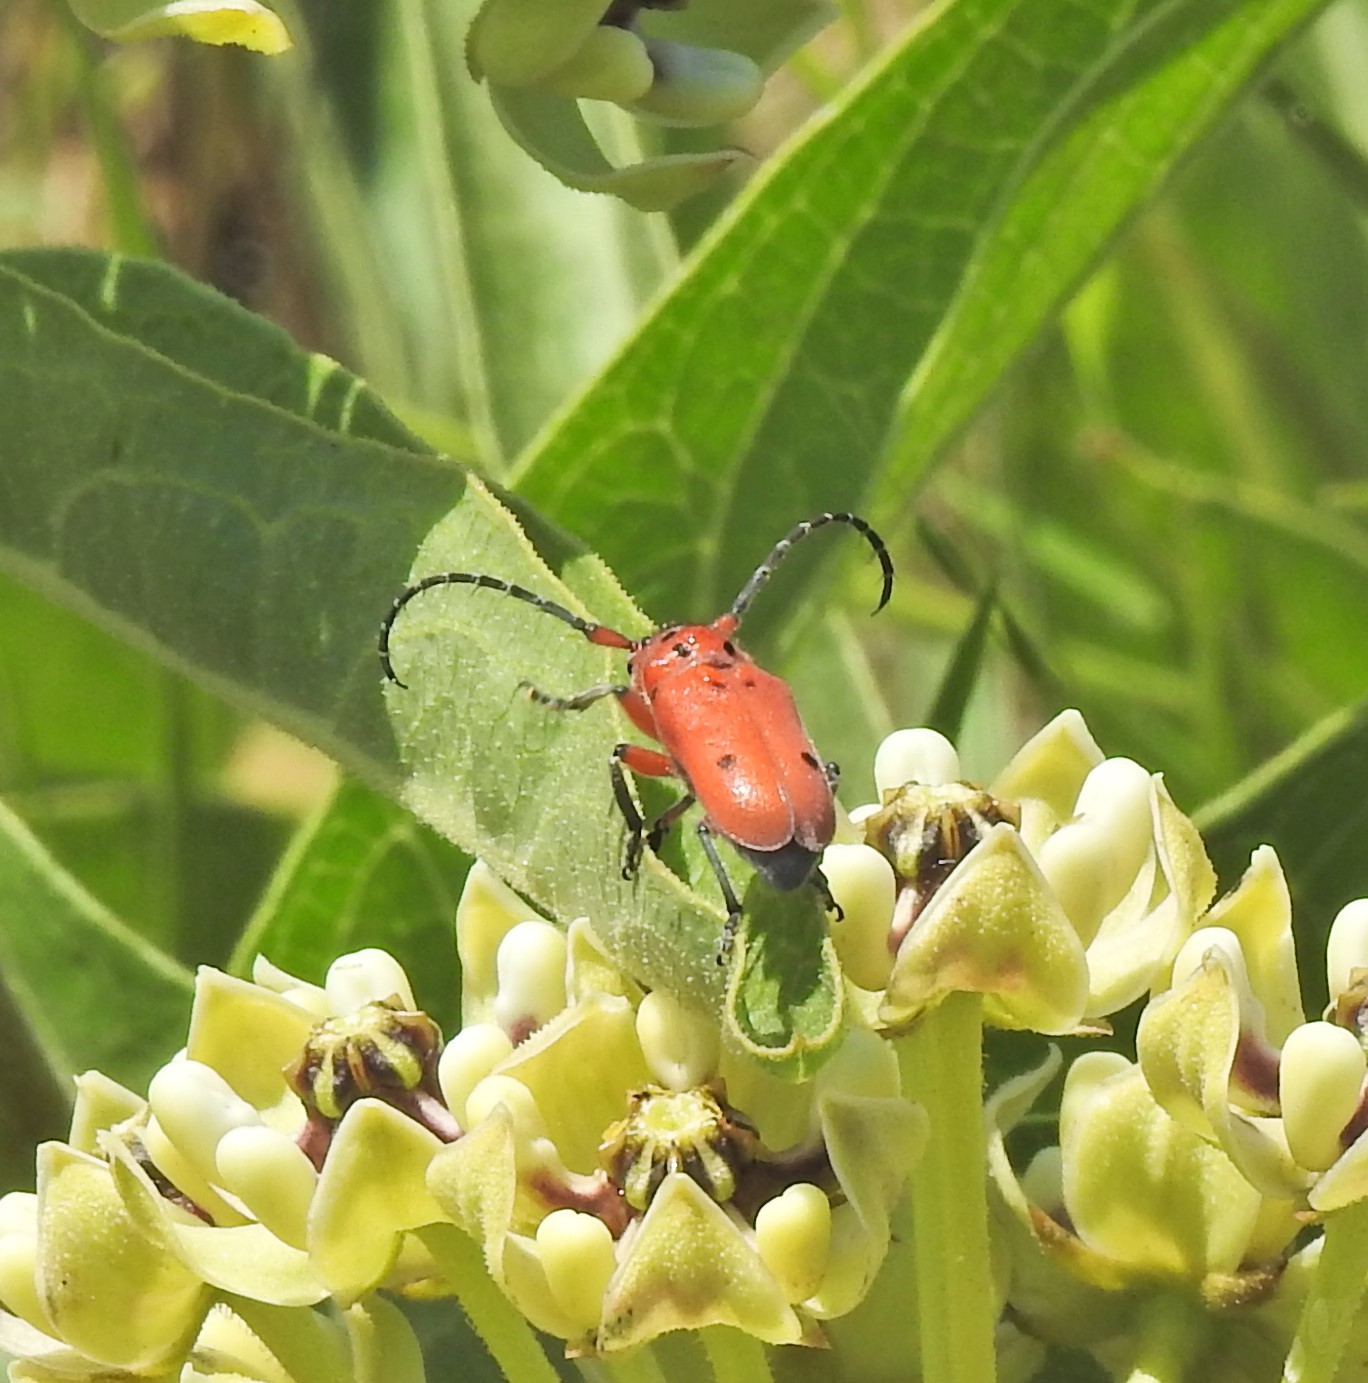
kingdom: Animalia
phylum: Arthropoda
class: Insecta
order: Coleoptera
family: Cerambycidae
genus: Tetraopes
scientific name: Tetraopes texanus
